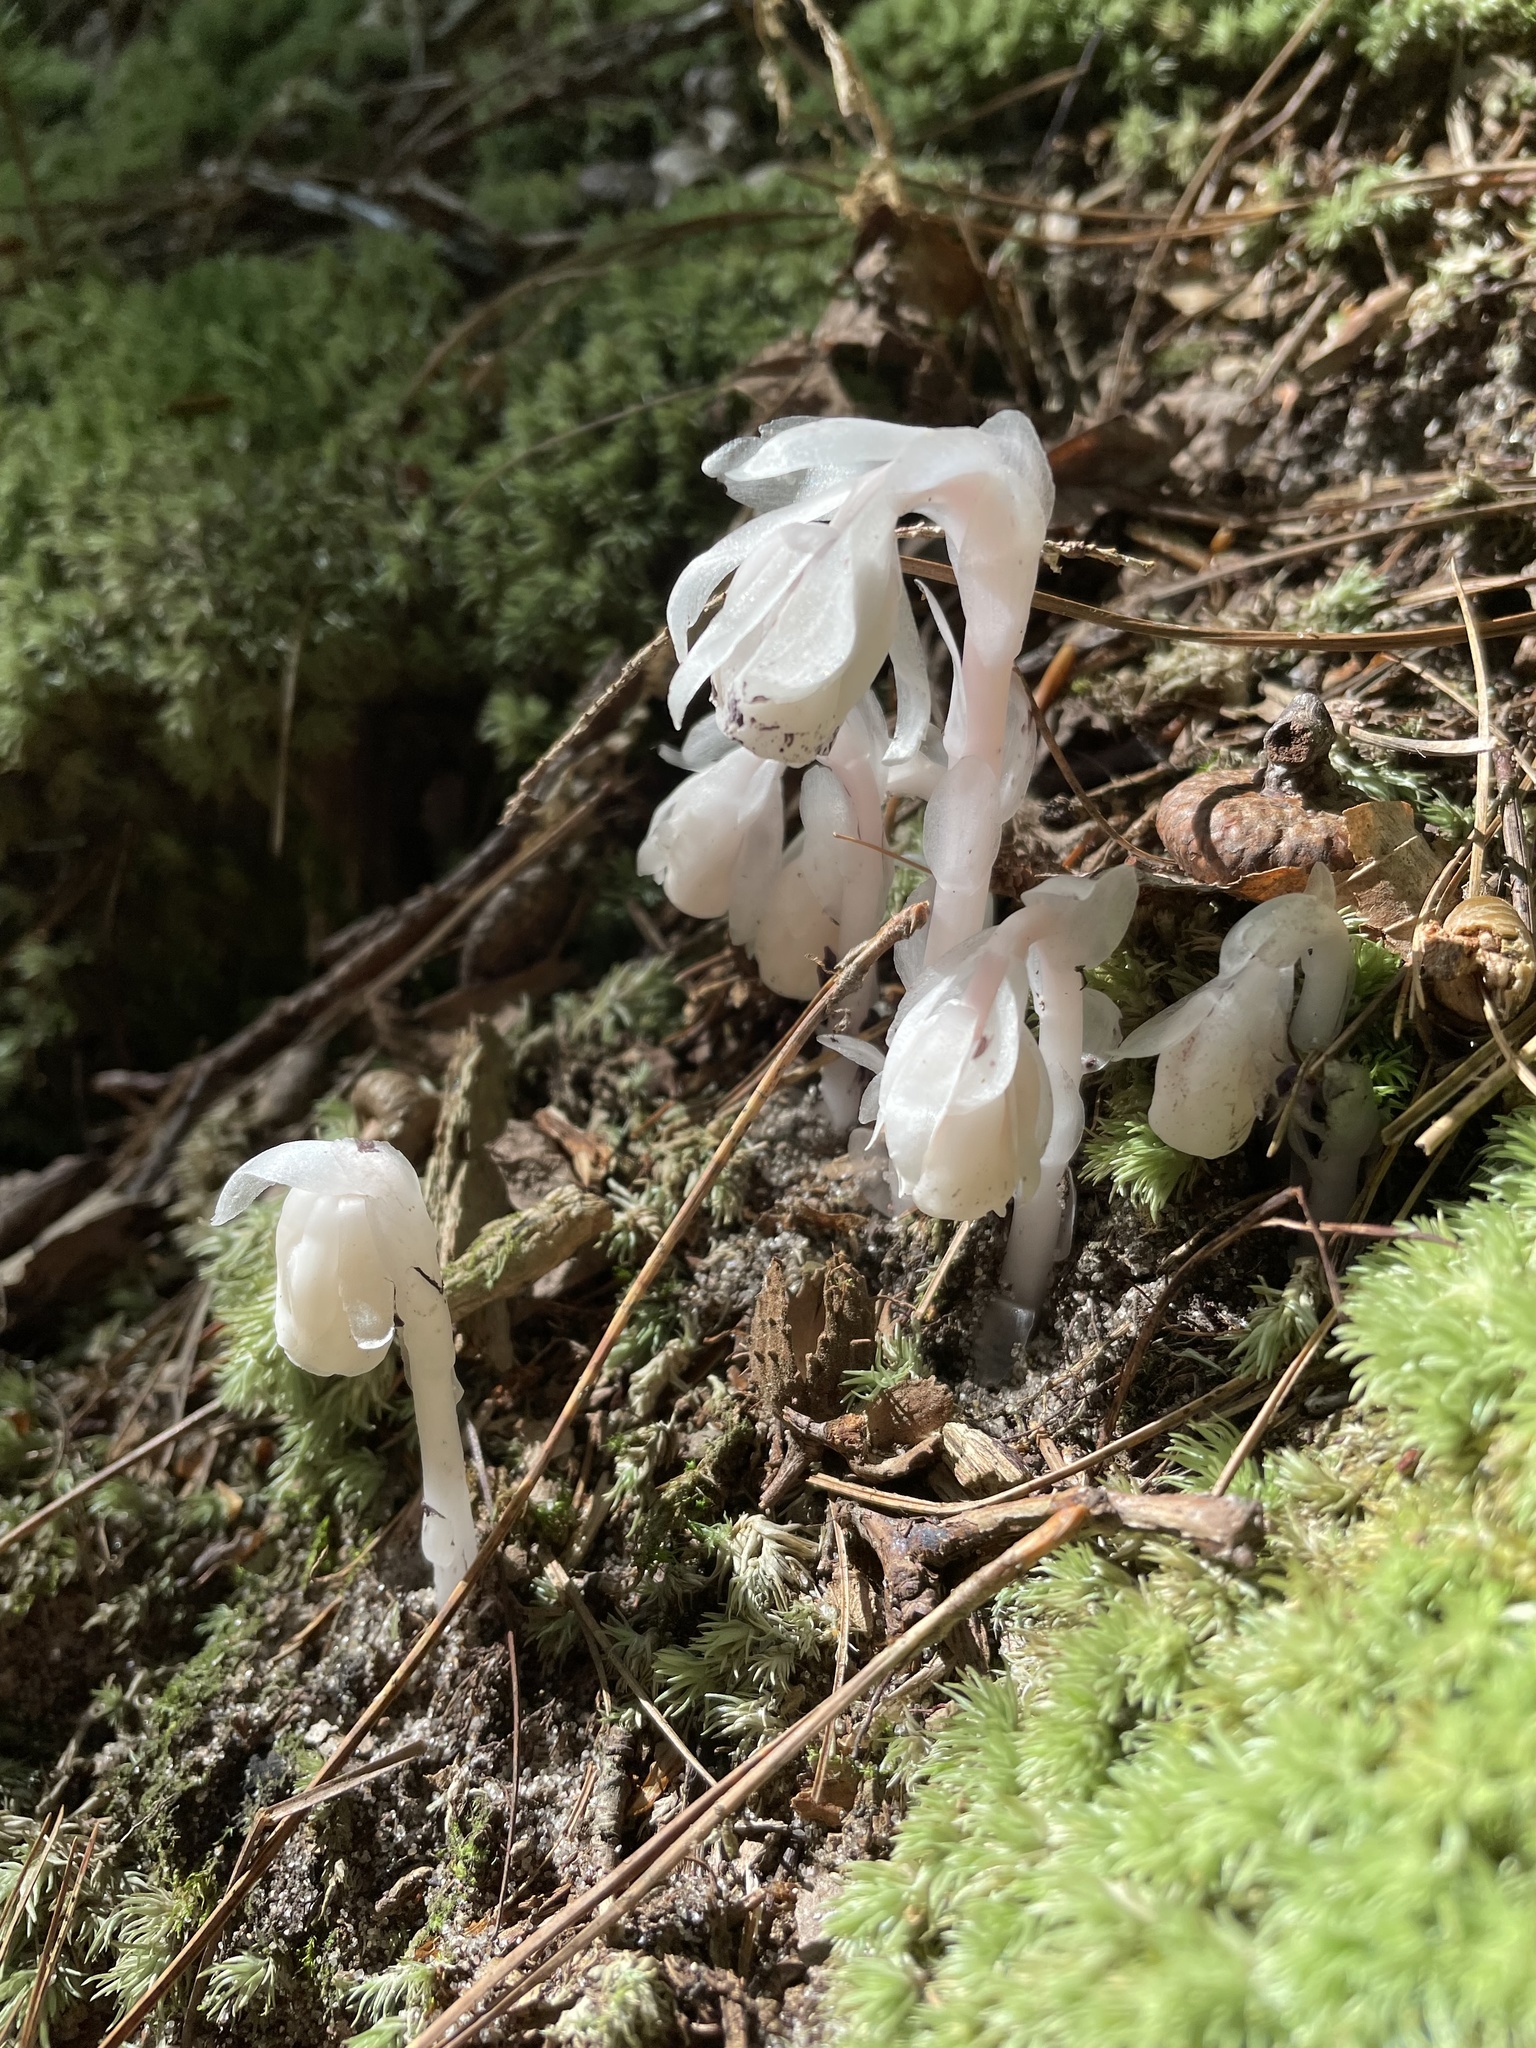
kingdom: Plantae
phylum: Tracheophyta
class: Magnoliopsida
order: Ericales
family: Ericaceae
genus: Monotropa
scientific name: Monotropa uniflora
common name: Convulsion root
